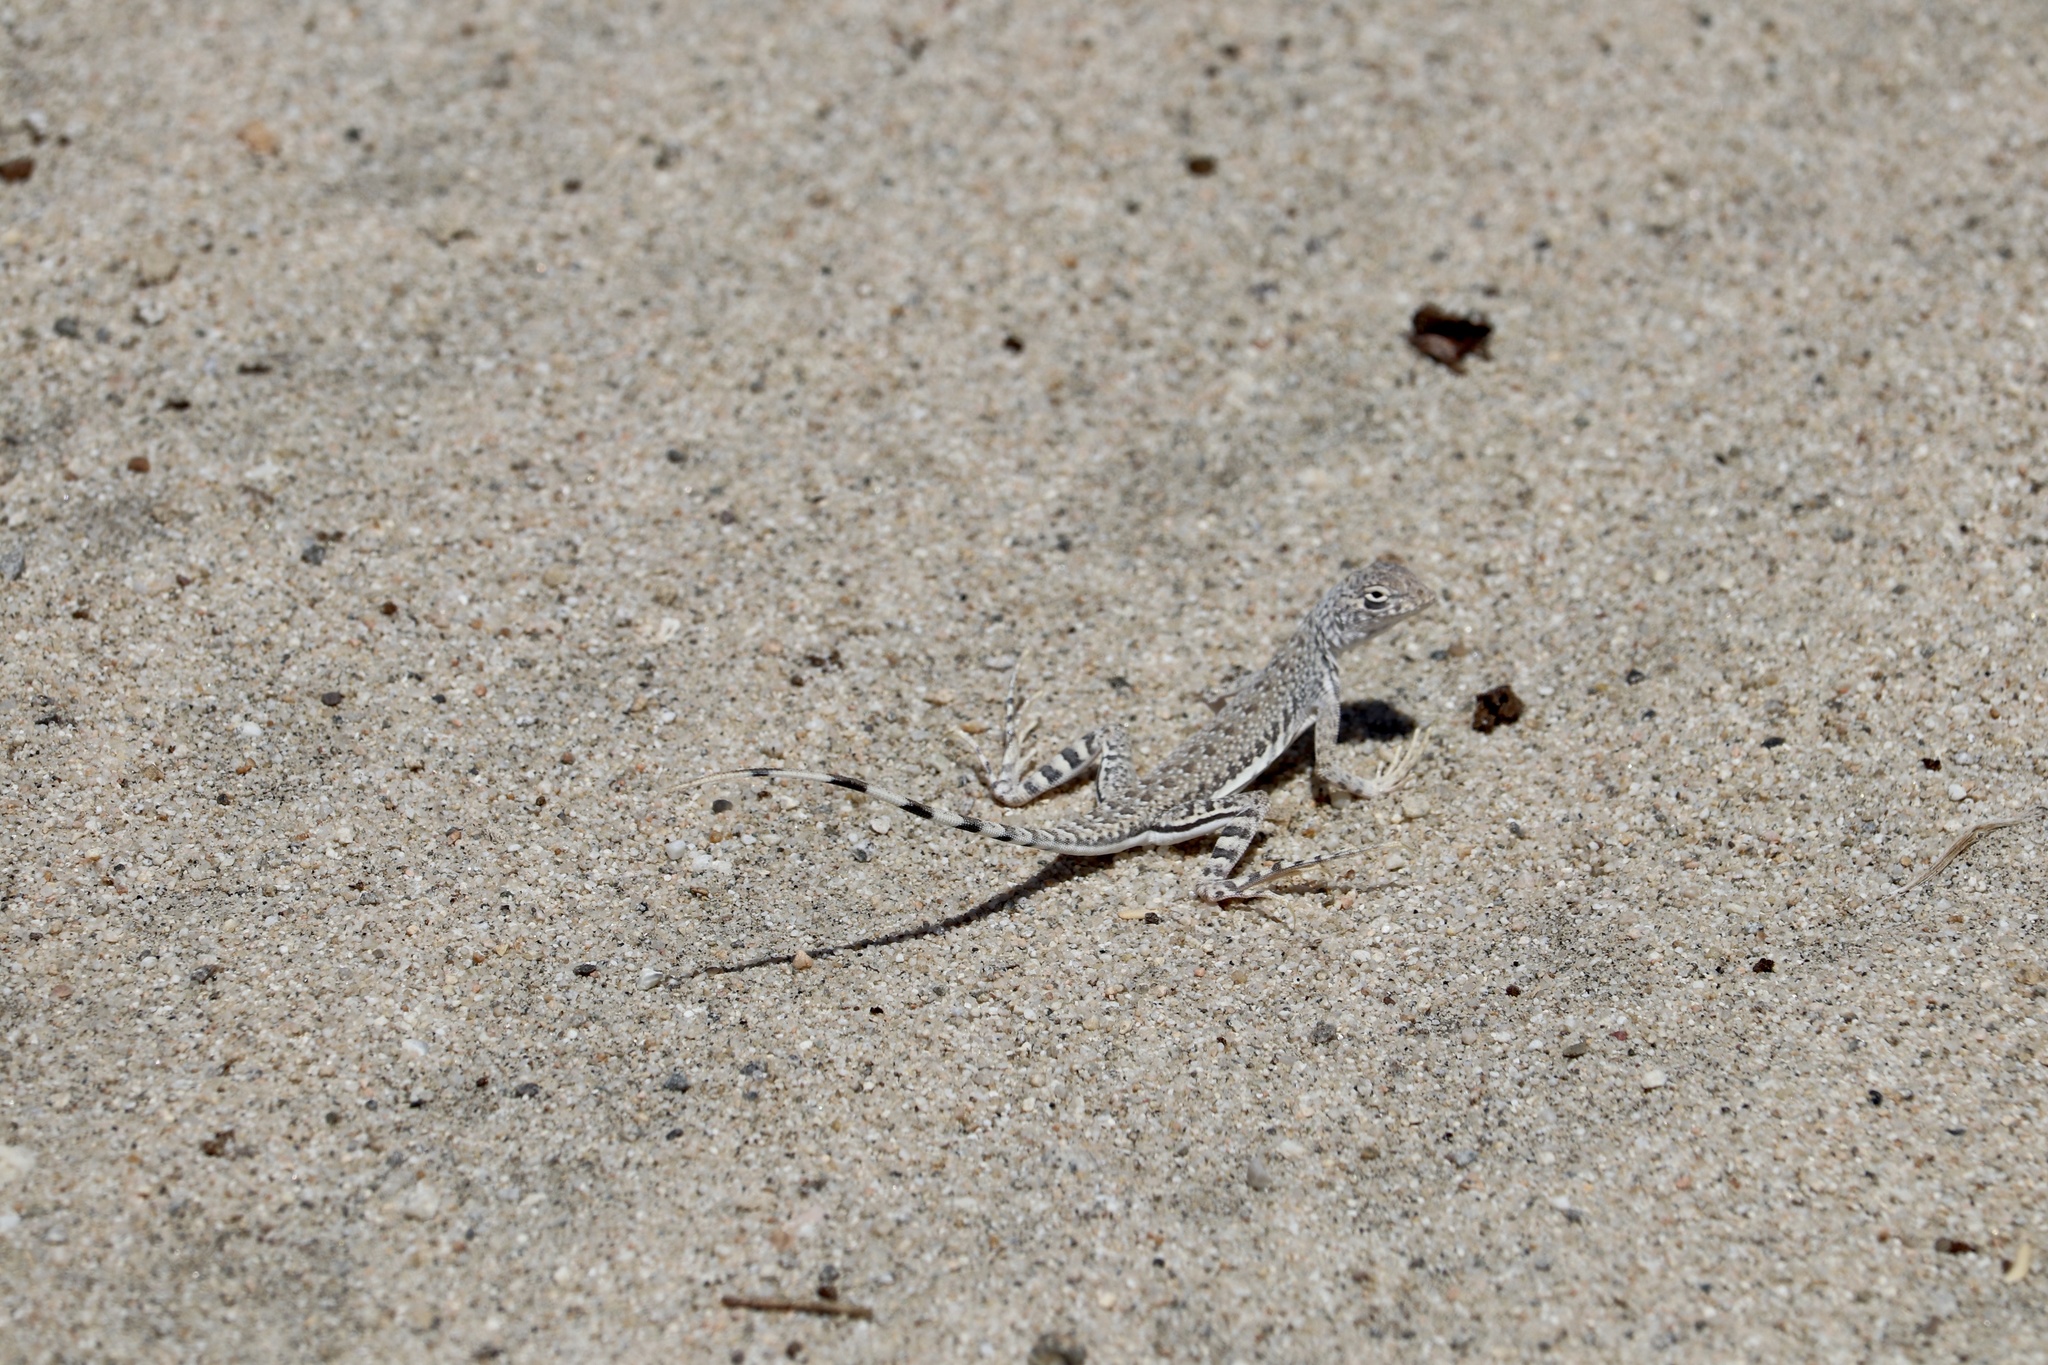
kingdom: Animalia
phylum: Chordata
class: Squamata
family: Phrynosomatidae
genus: Callisaurus
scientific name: Callisaurus draconoides
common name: Zebra-tailed lizard
